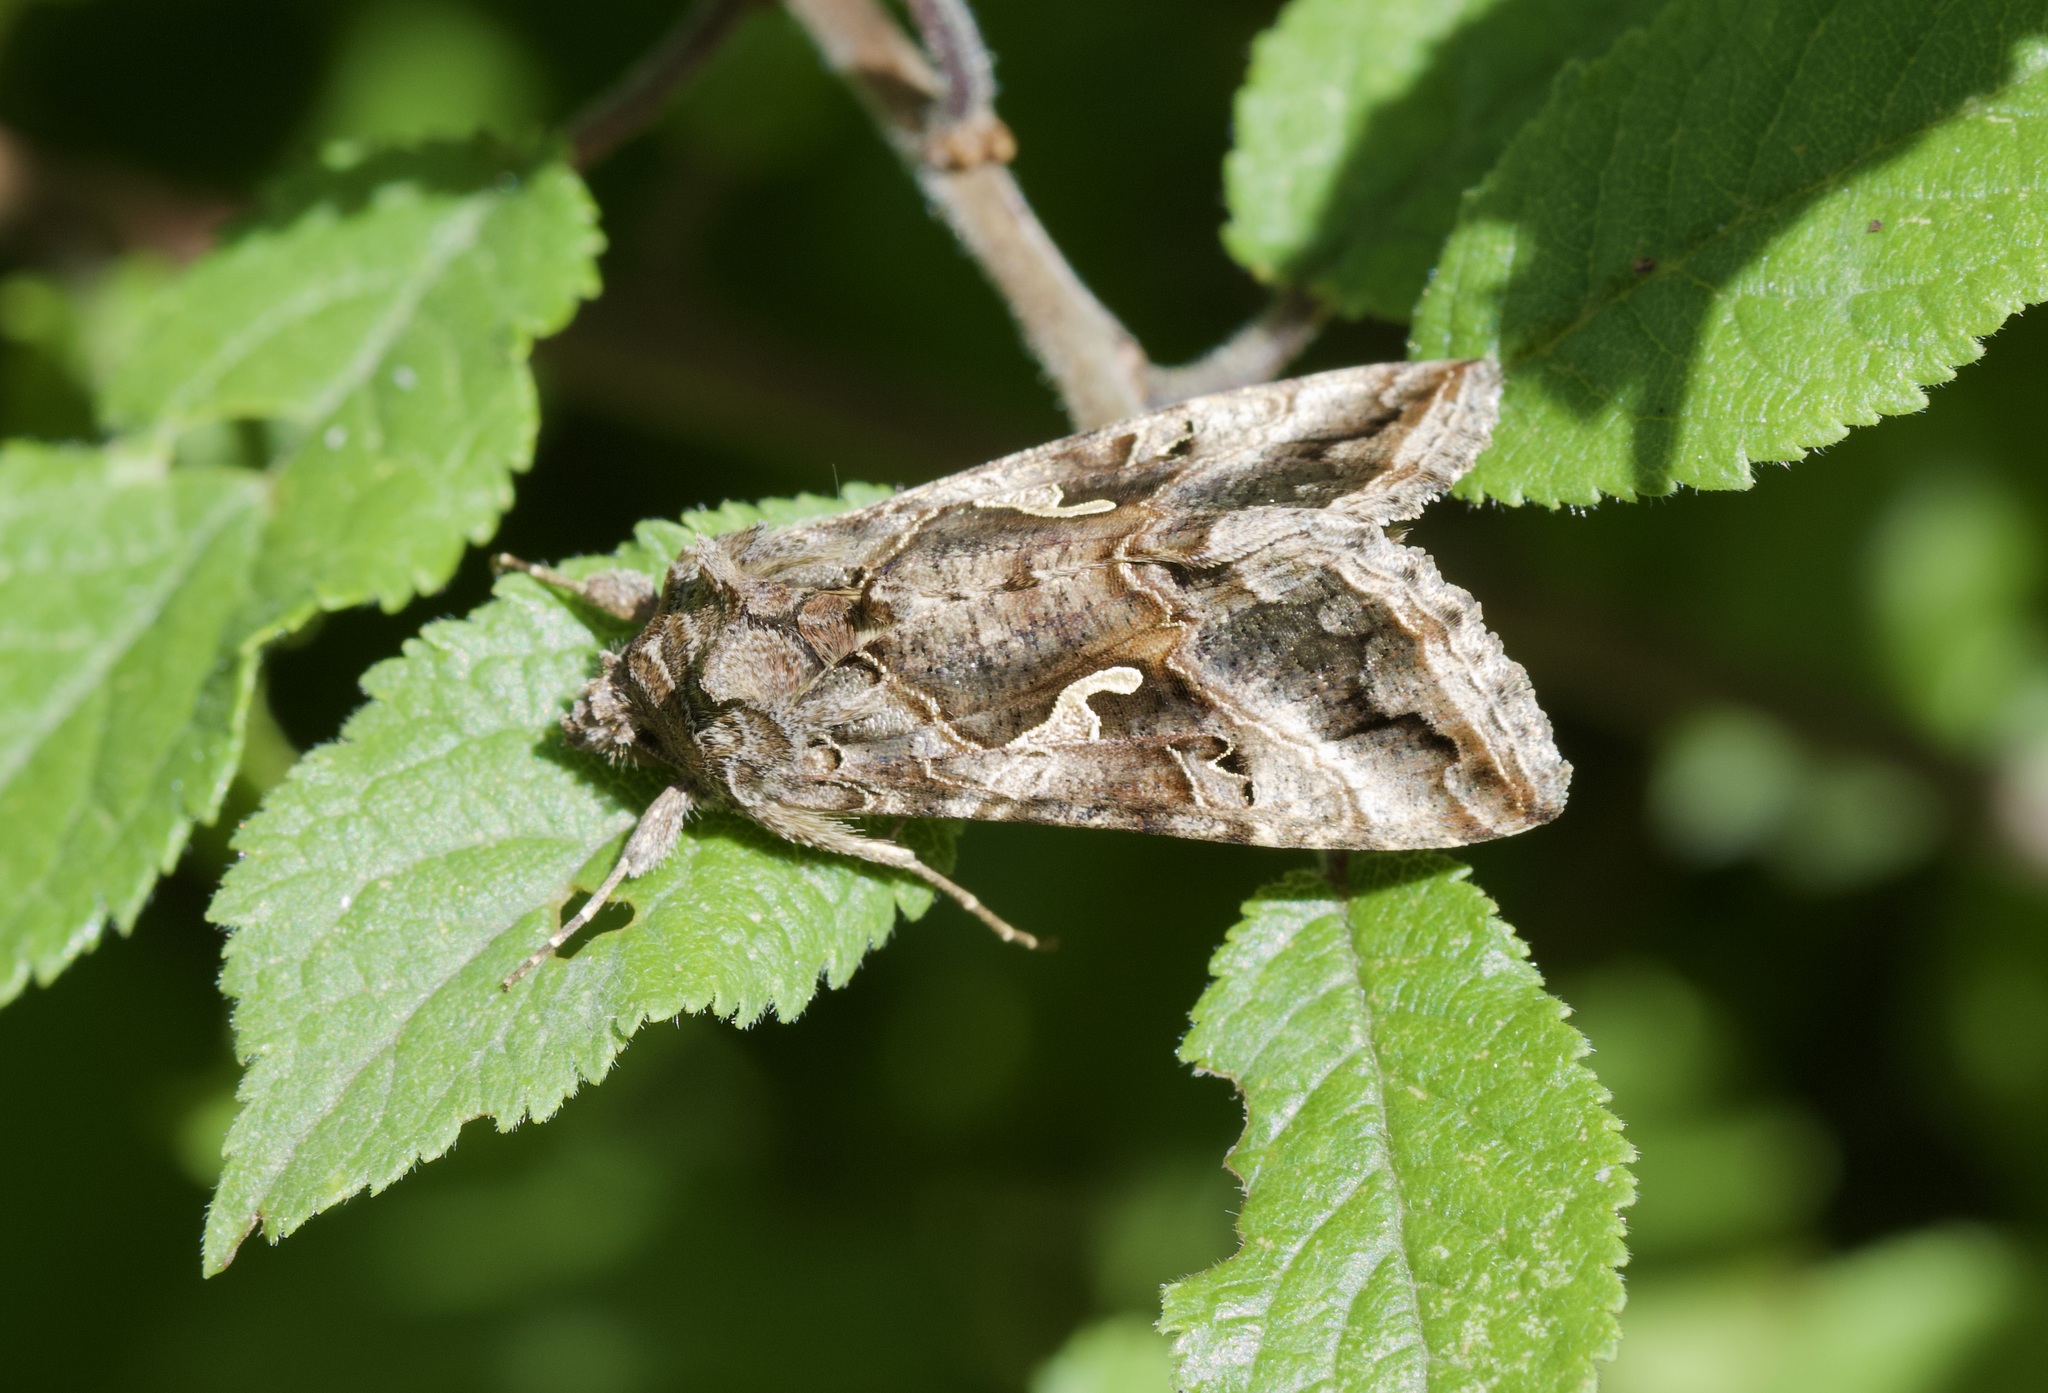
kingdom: Animalia
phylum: Arthropoda
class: Insecta
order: Lepidoptera
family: Noctuidae
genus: Autographa
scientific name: Autographa gamma
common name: Silver y
